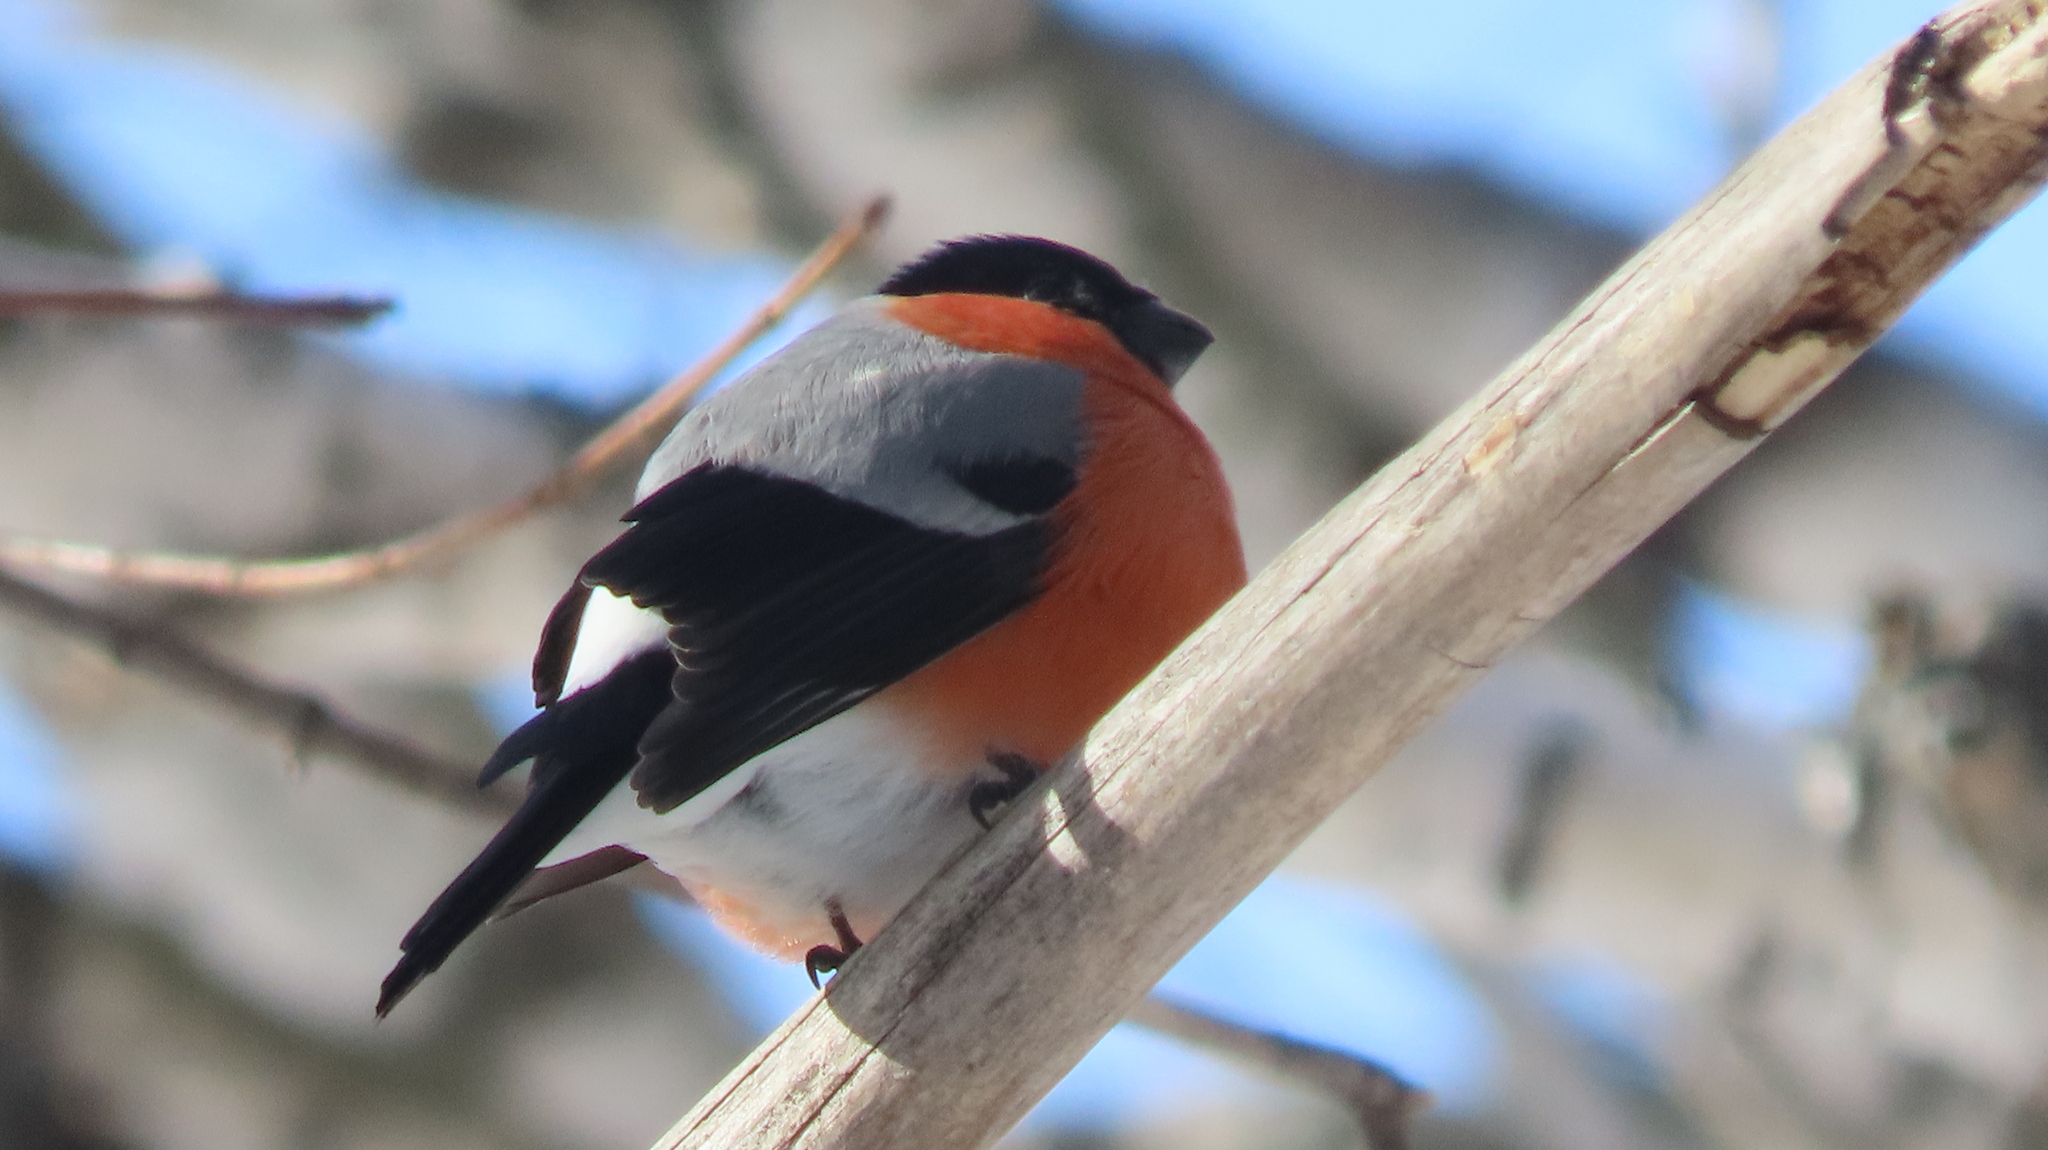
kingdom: Animalia
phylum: Chordata
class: Aves
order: Passeriformes
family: Fringillidae
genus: Pyrrhula
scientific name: Pyrrhula pyrrhula
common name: Eurasian bullfinch
